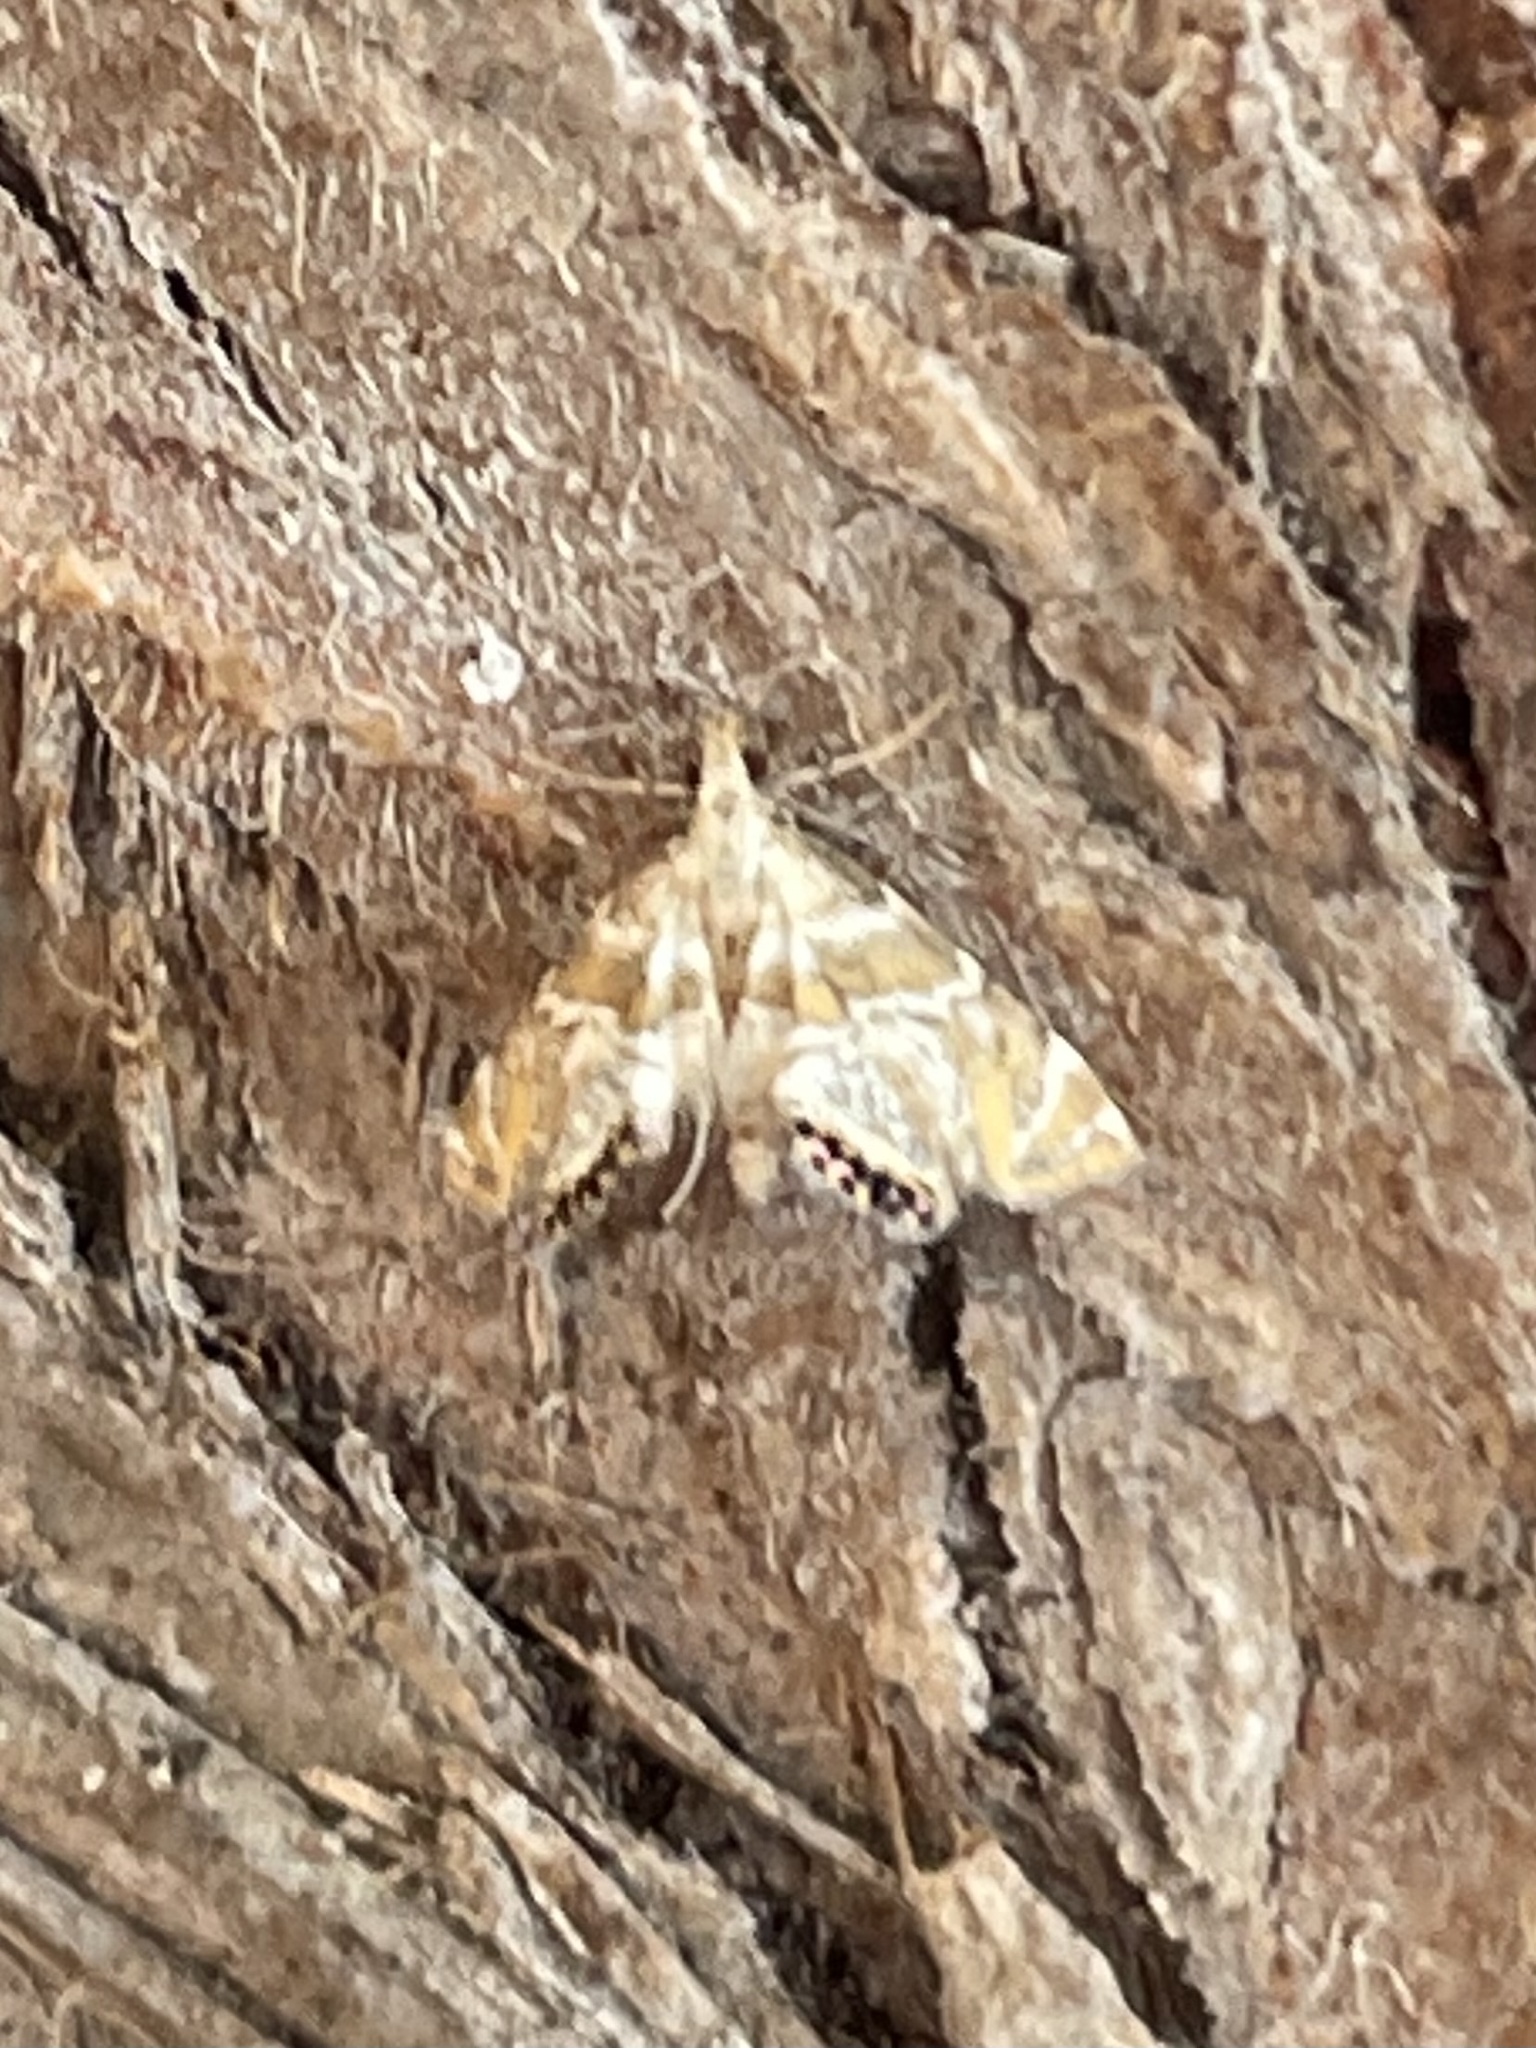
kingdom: Animalia
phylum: Arthropoda
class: Insecta
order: Lepidoptera
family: Crambidae
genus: Petrophila
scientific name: Petrophila heppneri
